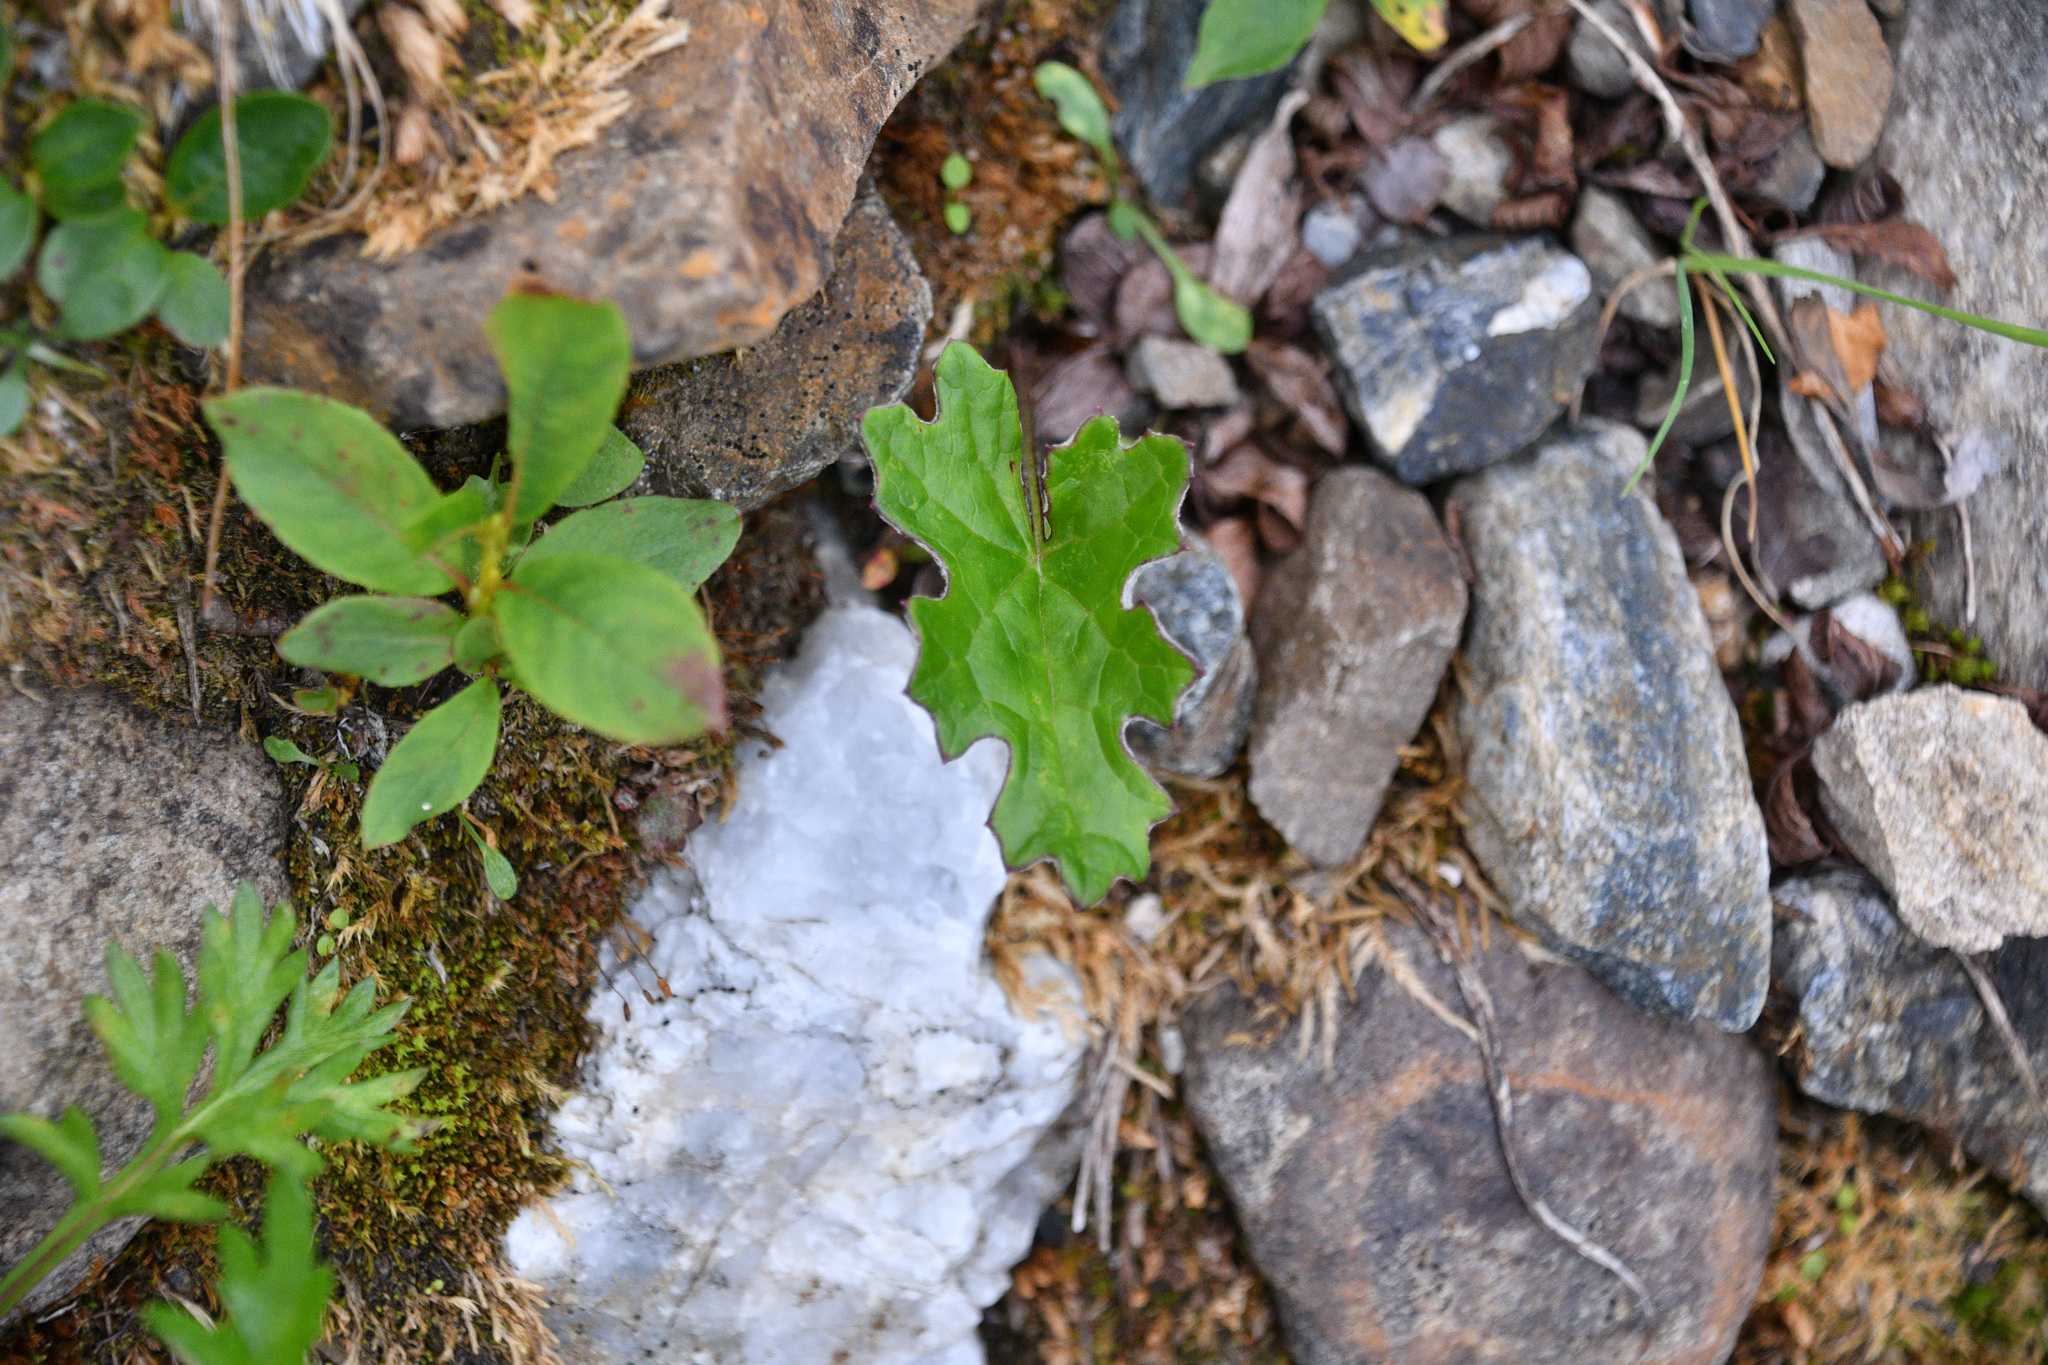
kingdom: Plantae
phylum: Tracheophyta
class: Magnoliopsida
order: Asterales
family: Asteraceae
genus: Petasites
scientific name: Petasites frigidus
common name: Arctic butterbur
